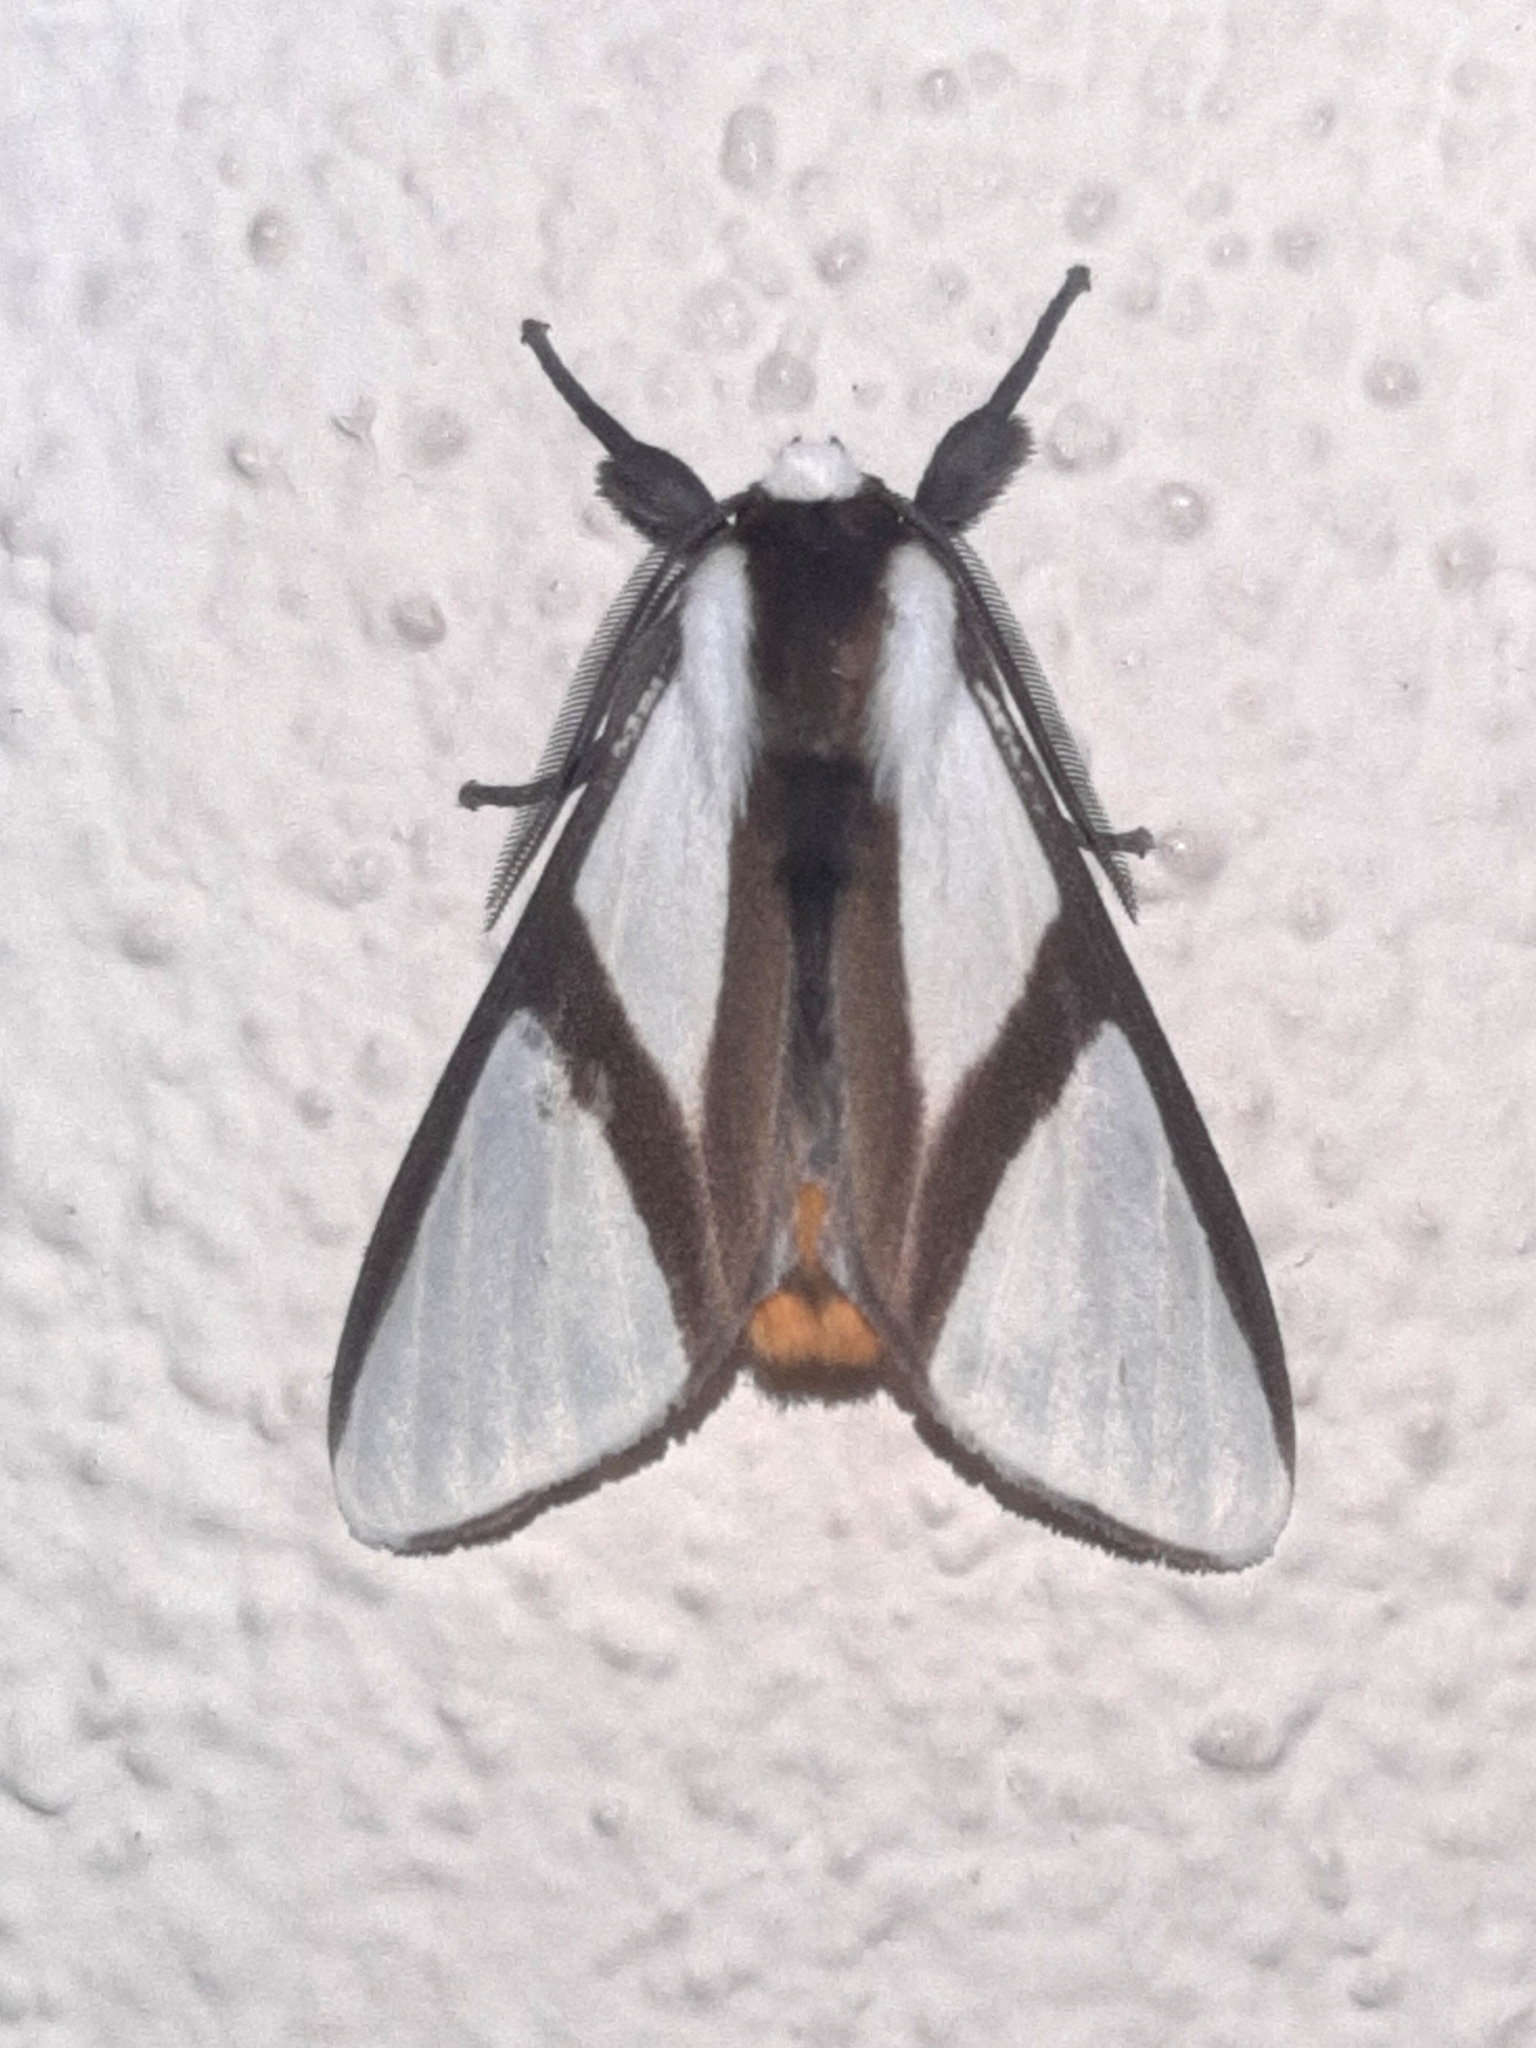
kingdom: Animalia
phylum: Arthropoda
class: Insecta
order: Lepidoptera
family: Erebidae
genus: Turuptiana
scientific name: Turuptiana obliqua
